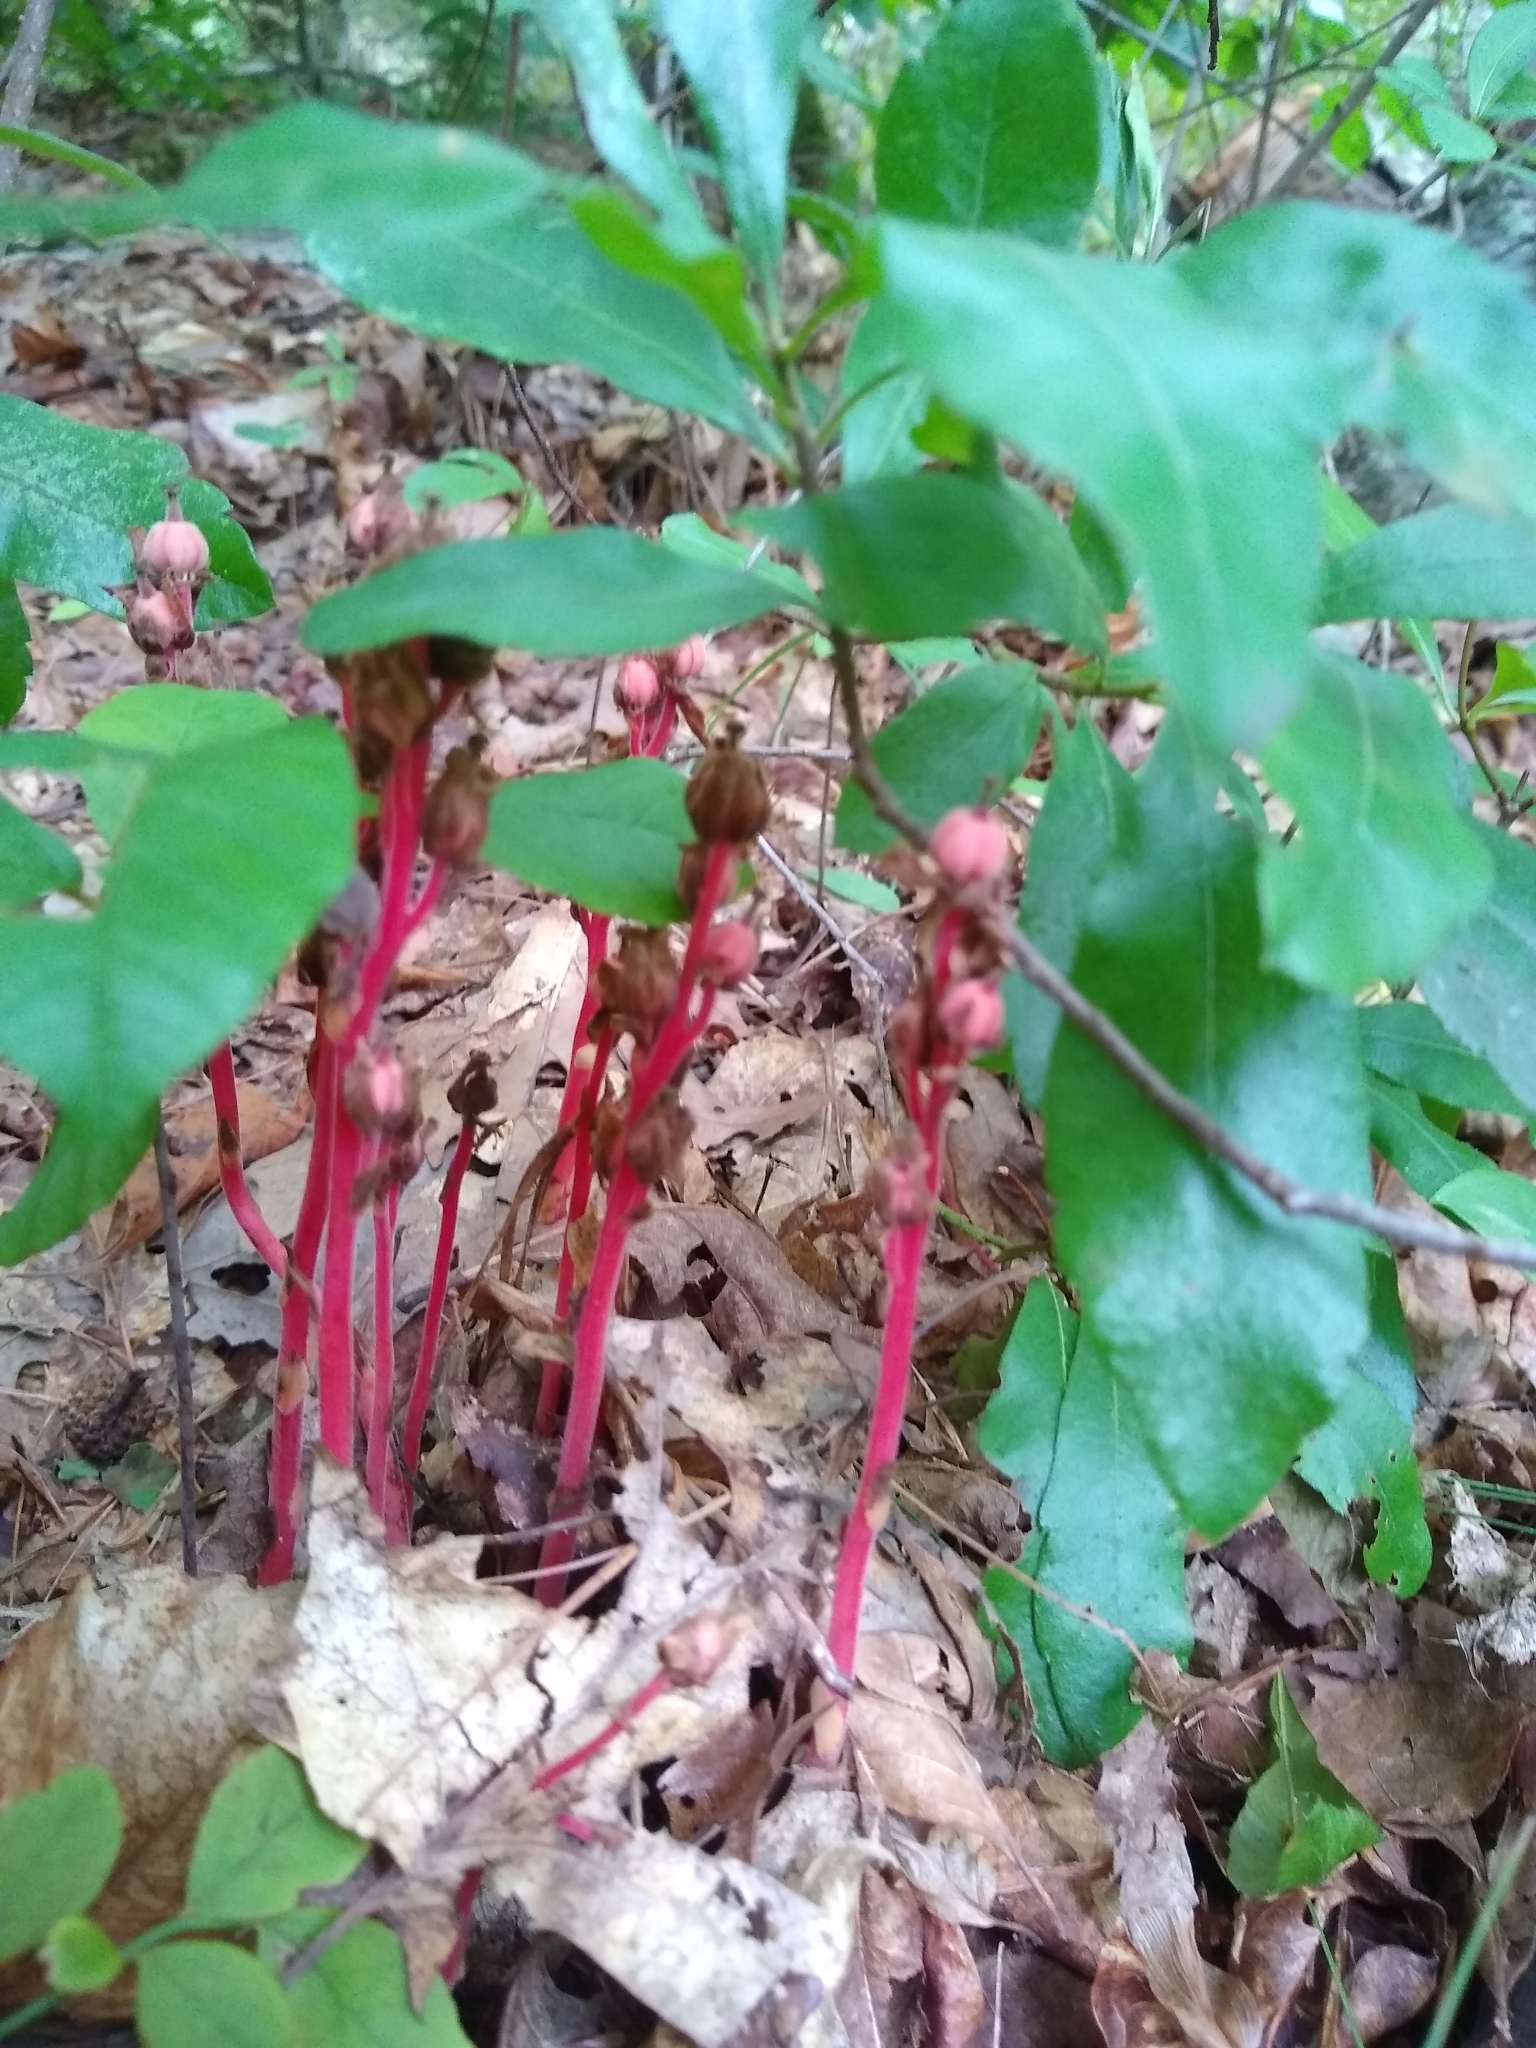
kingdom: Plantae
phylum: Tracheophyta
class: Magnoliopsida
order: Ericales
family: Ericaceae
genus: Hypopitys
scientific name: Hypopitys monotropa
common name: Yellow bird's-nest
